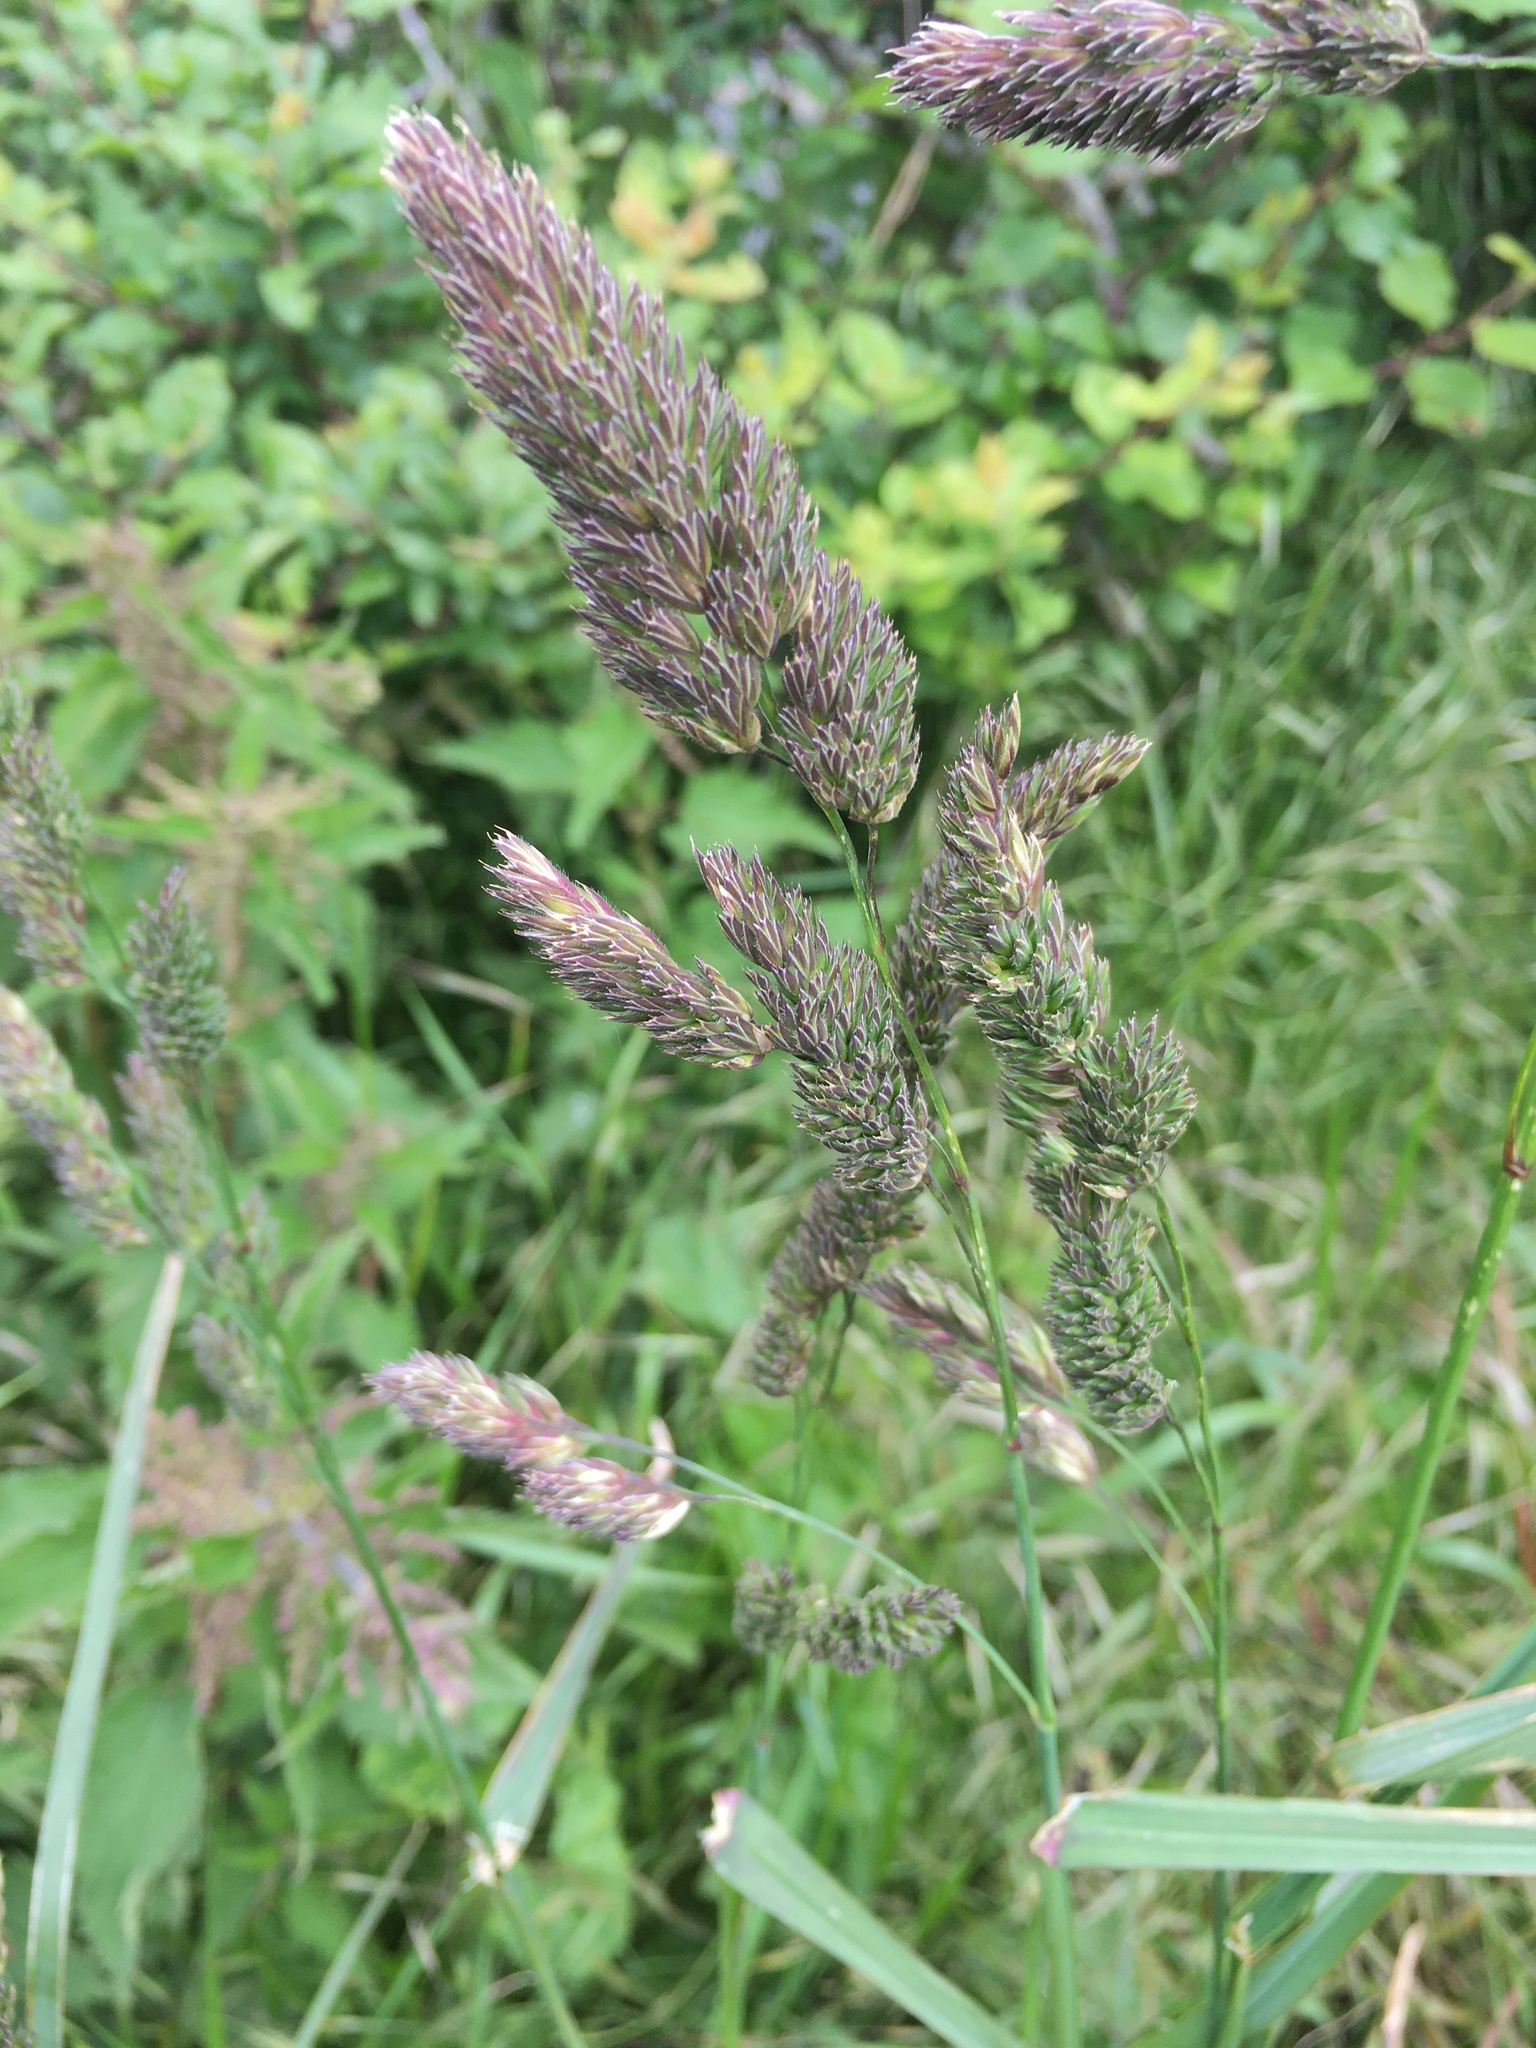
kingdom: Plantae
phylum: Tracheophyta
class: Liliopsida
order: Poales
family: Poaceae
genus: Dactylis
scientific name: Dactylis glomerata
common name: Orchardgrass
